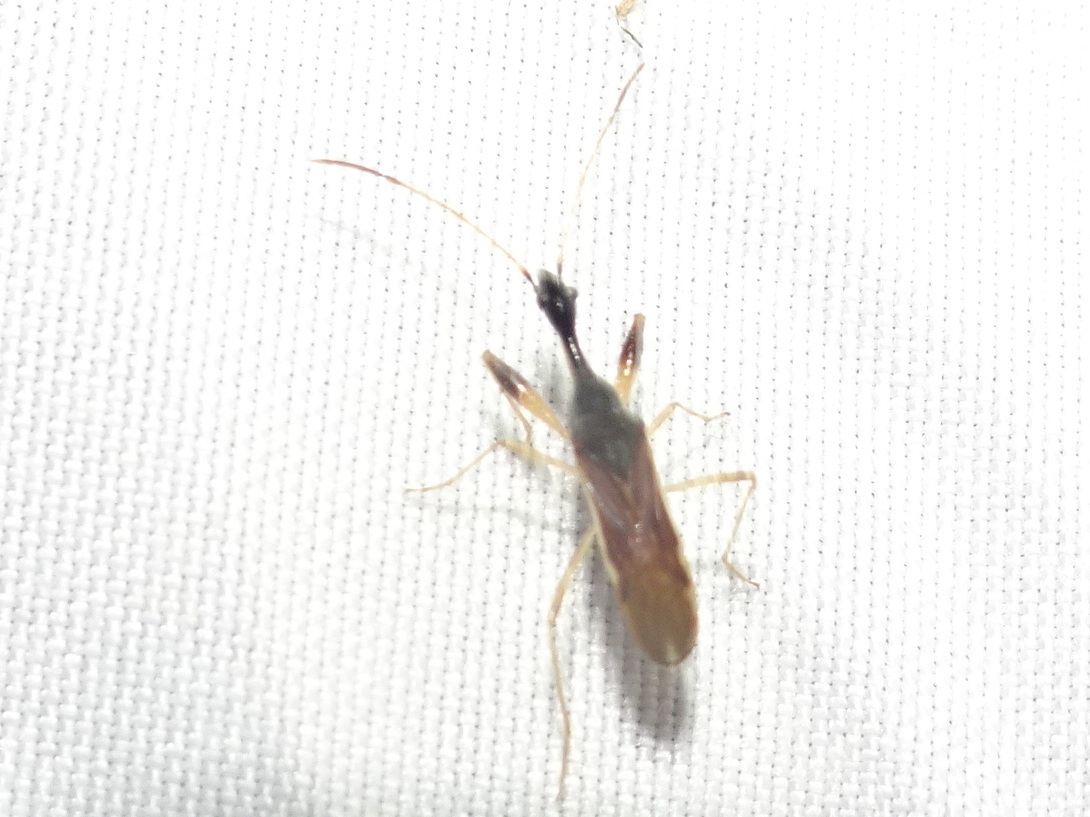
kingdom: Animalia
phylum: Arthropoda
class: Insecta
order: Hemiptera
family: Rhyparochromidae
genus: Myodocha
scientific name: Myodocha serripes
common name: Long-necked seed bug
